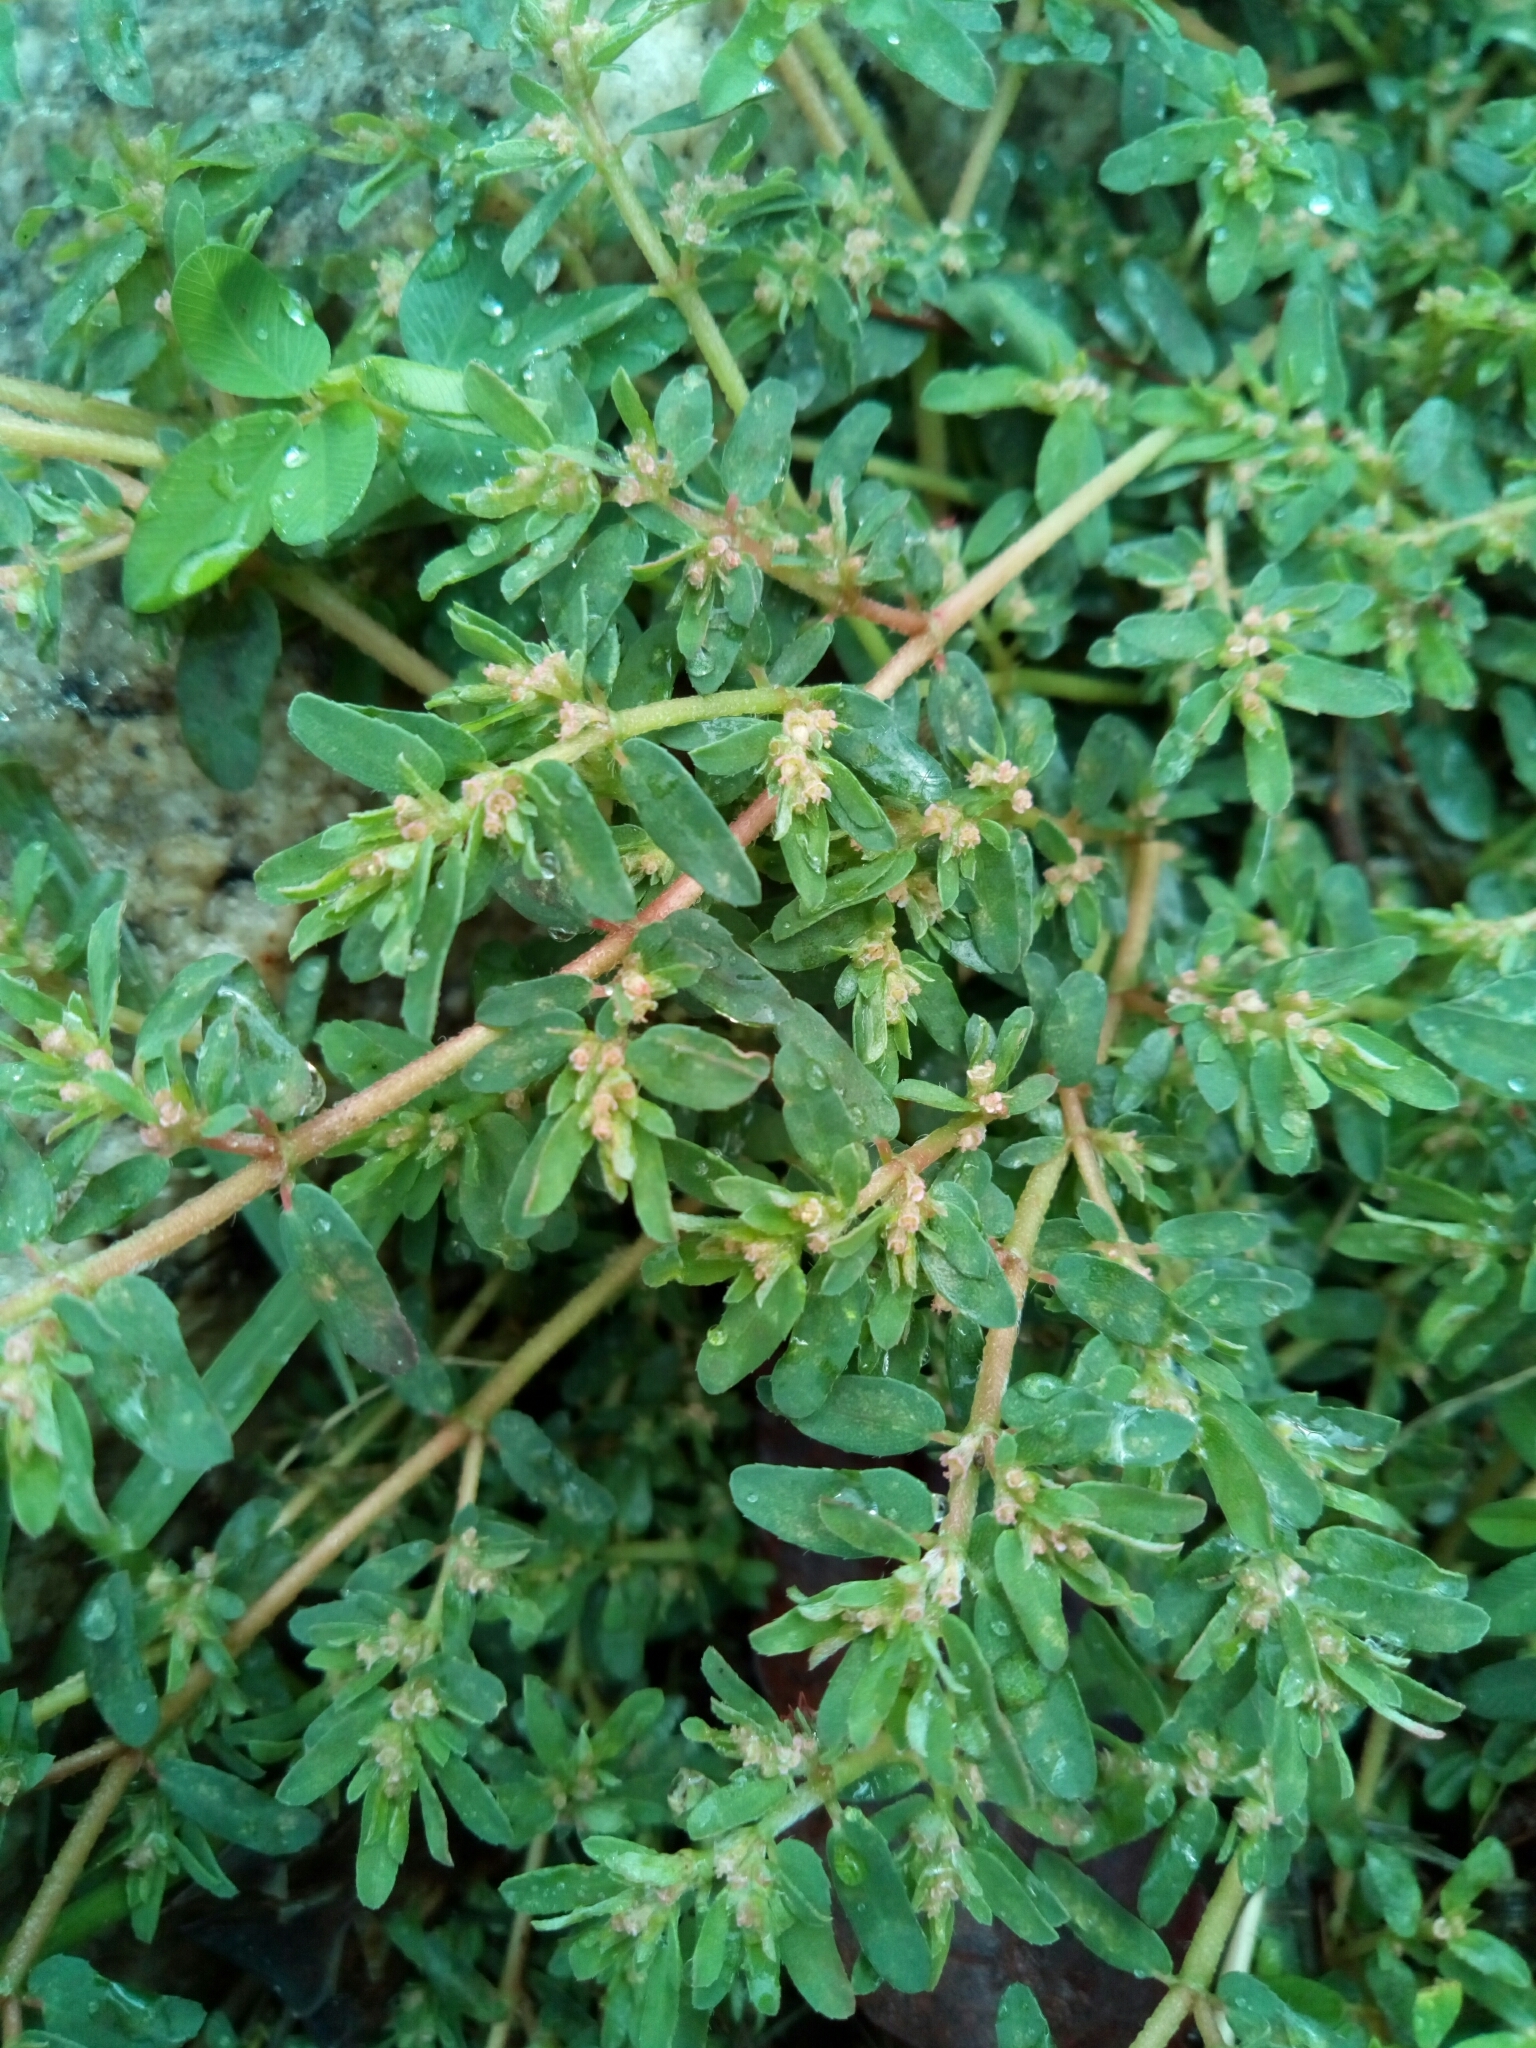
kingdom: Plantae
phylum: Tracheophyta
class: Magnoliopsida
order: Malpighiales
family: Euphorbiaceae
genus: Euphorbia
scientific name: Euphorbia maculata
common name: Spotted spurge
